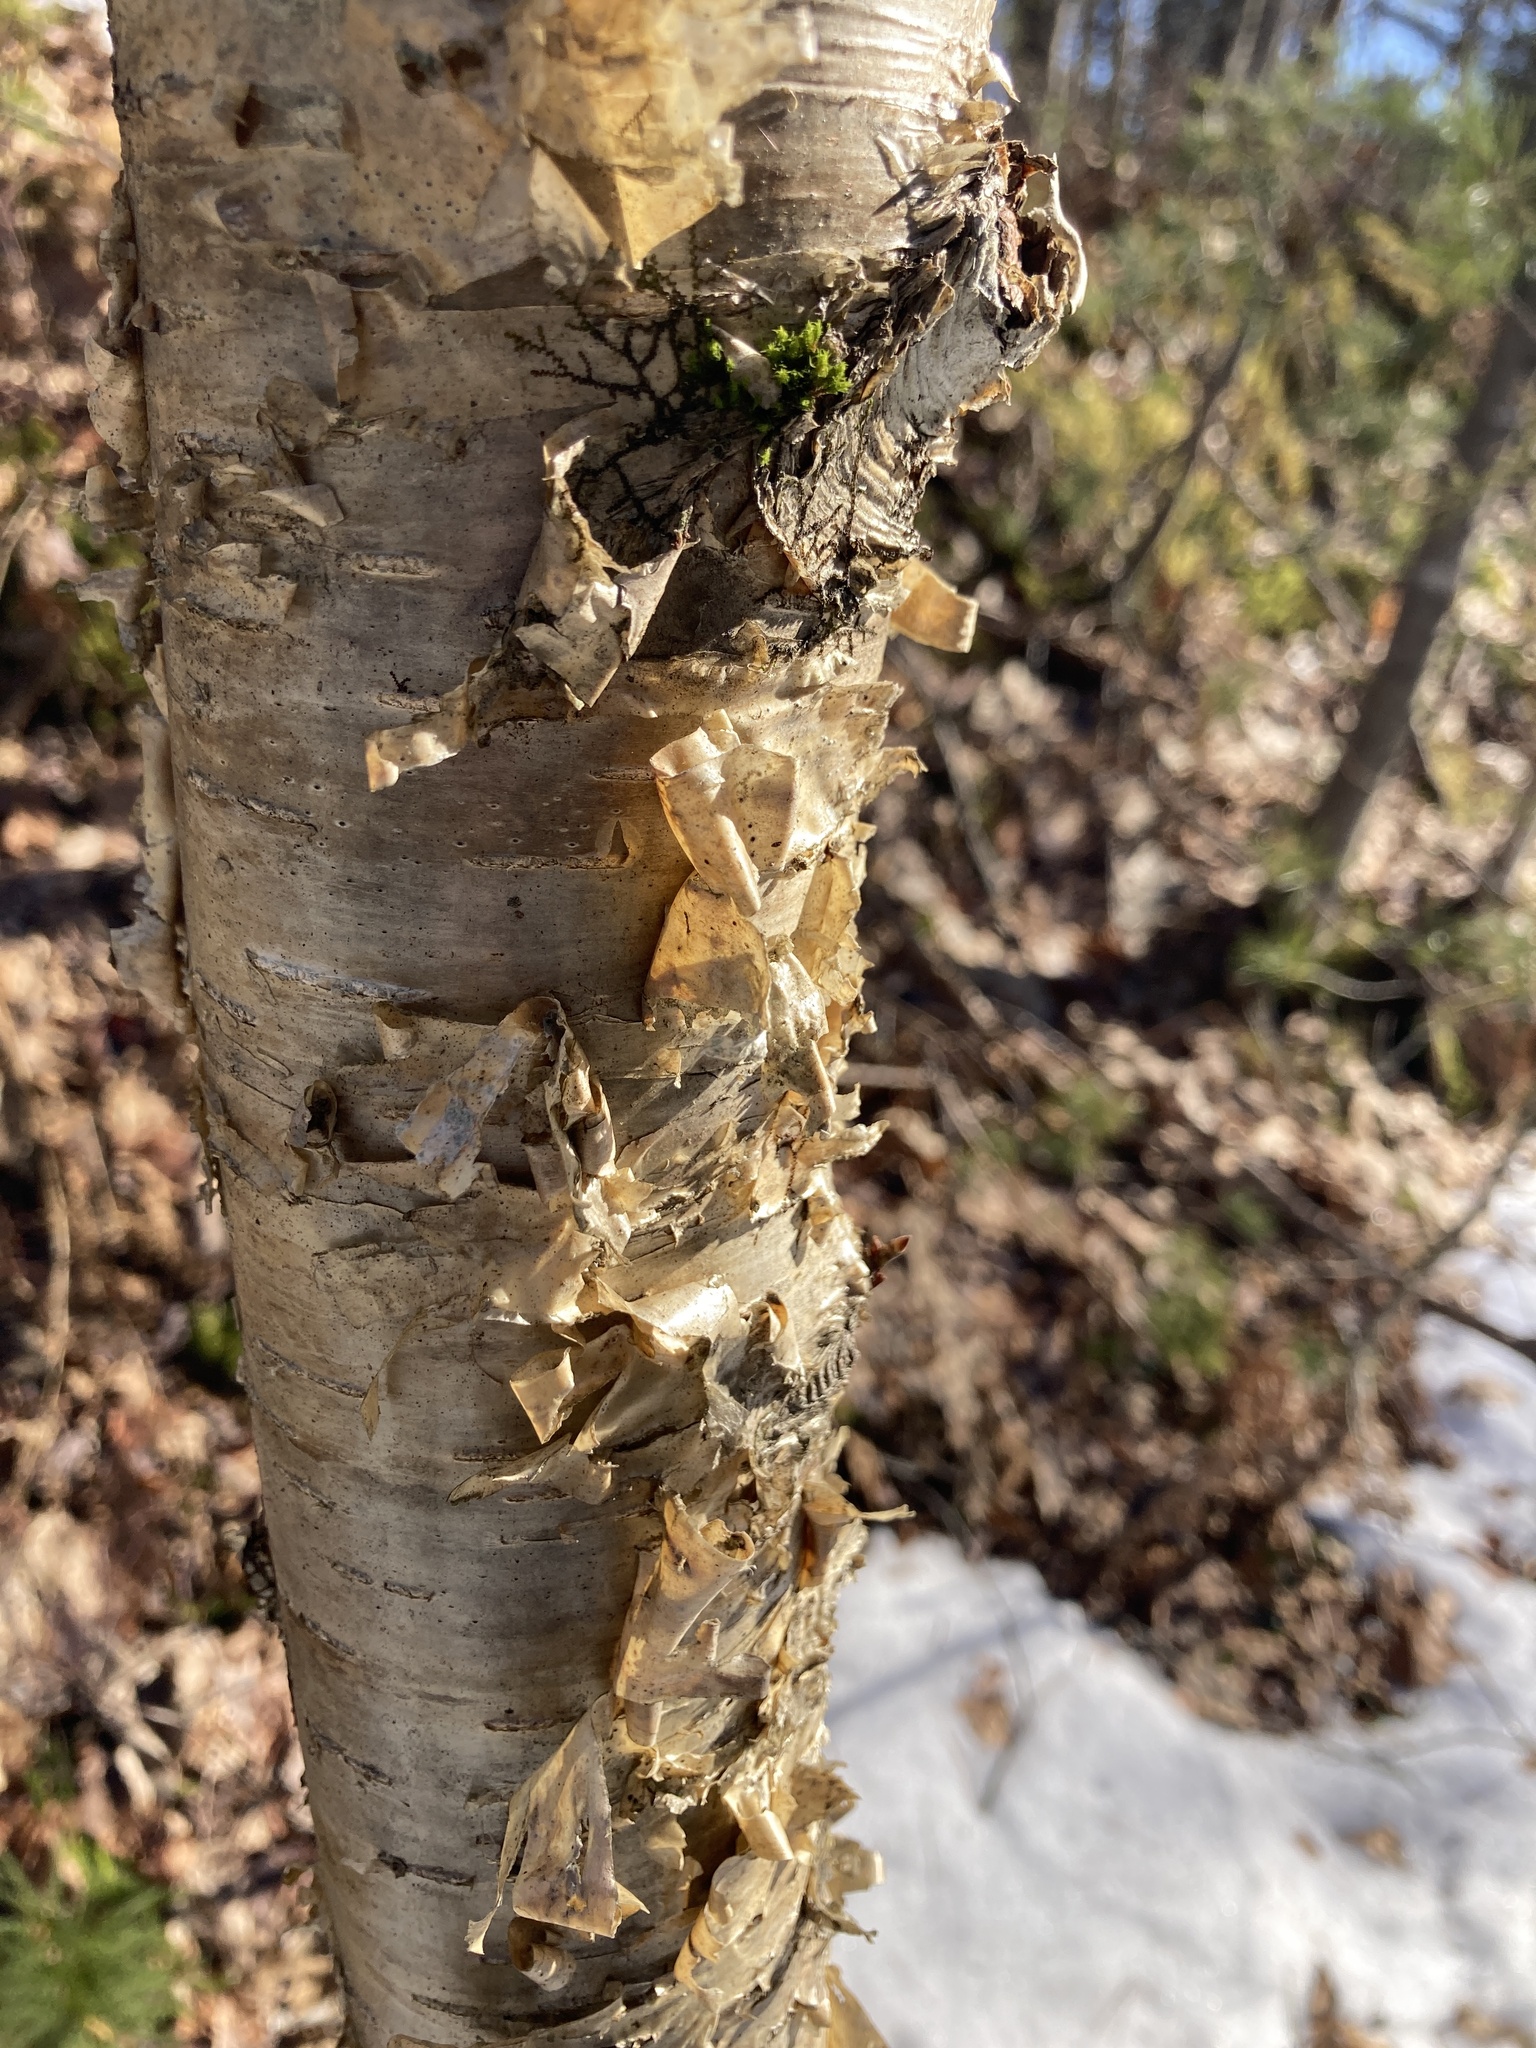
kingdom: Plantae
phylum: Tracheophyta
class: Magnoliopsida
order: Fagales
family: Betulaceae
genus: Betula
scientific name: Betula alleghaniensis
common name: Yellow birch
